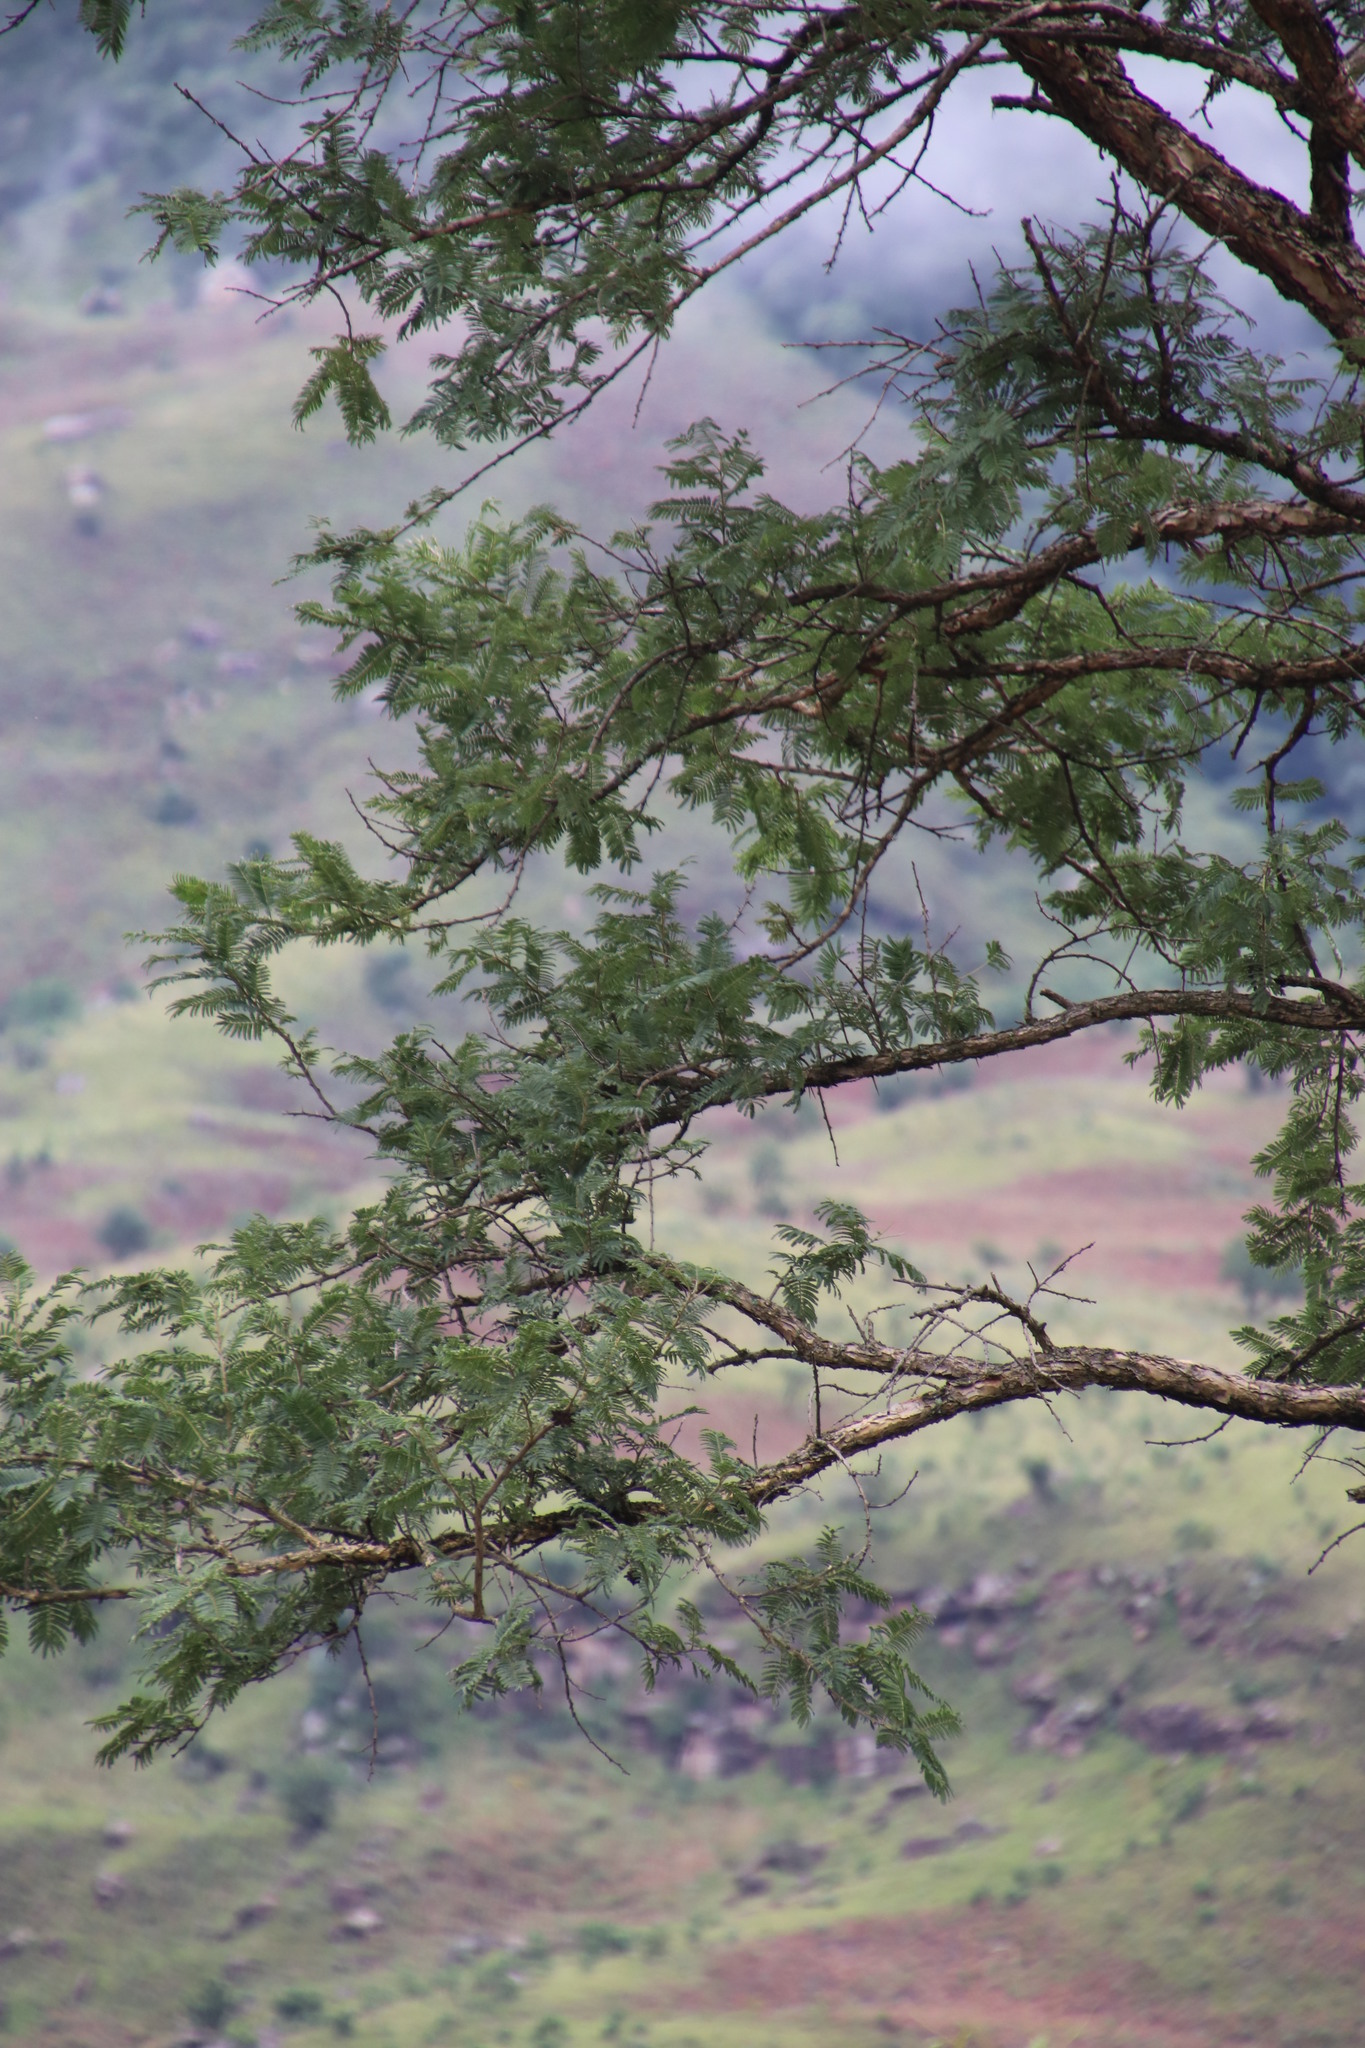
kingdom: Plantae
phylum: Tracheophyta
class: Magnoliopsida
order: Fabales
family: Fabaceae
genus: Vachellia
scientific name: Vachellia sieberiana
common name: Flat-topped thorn
